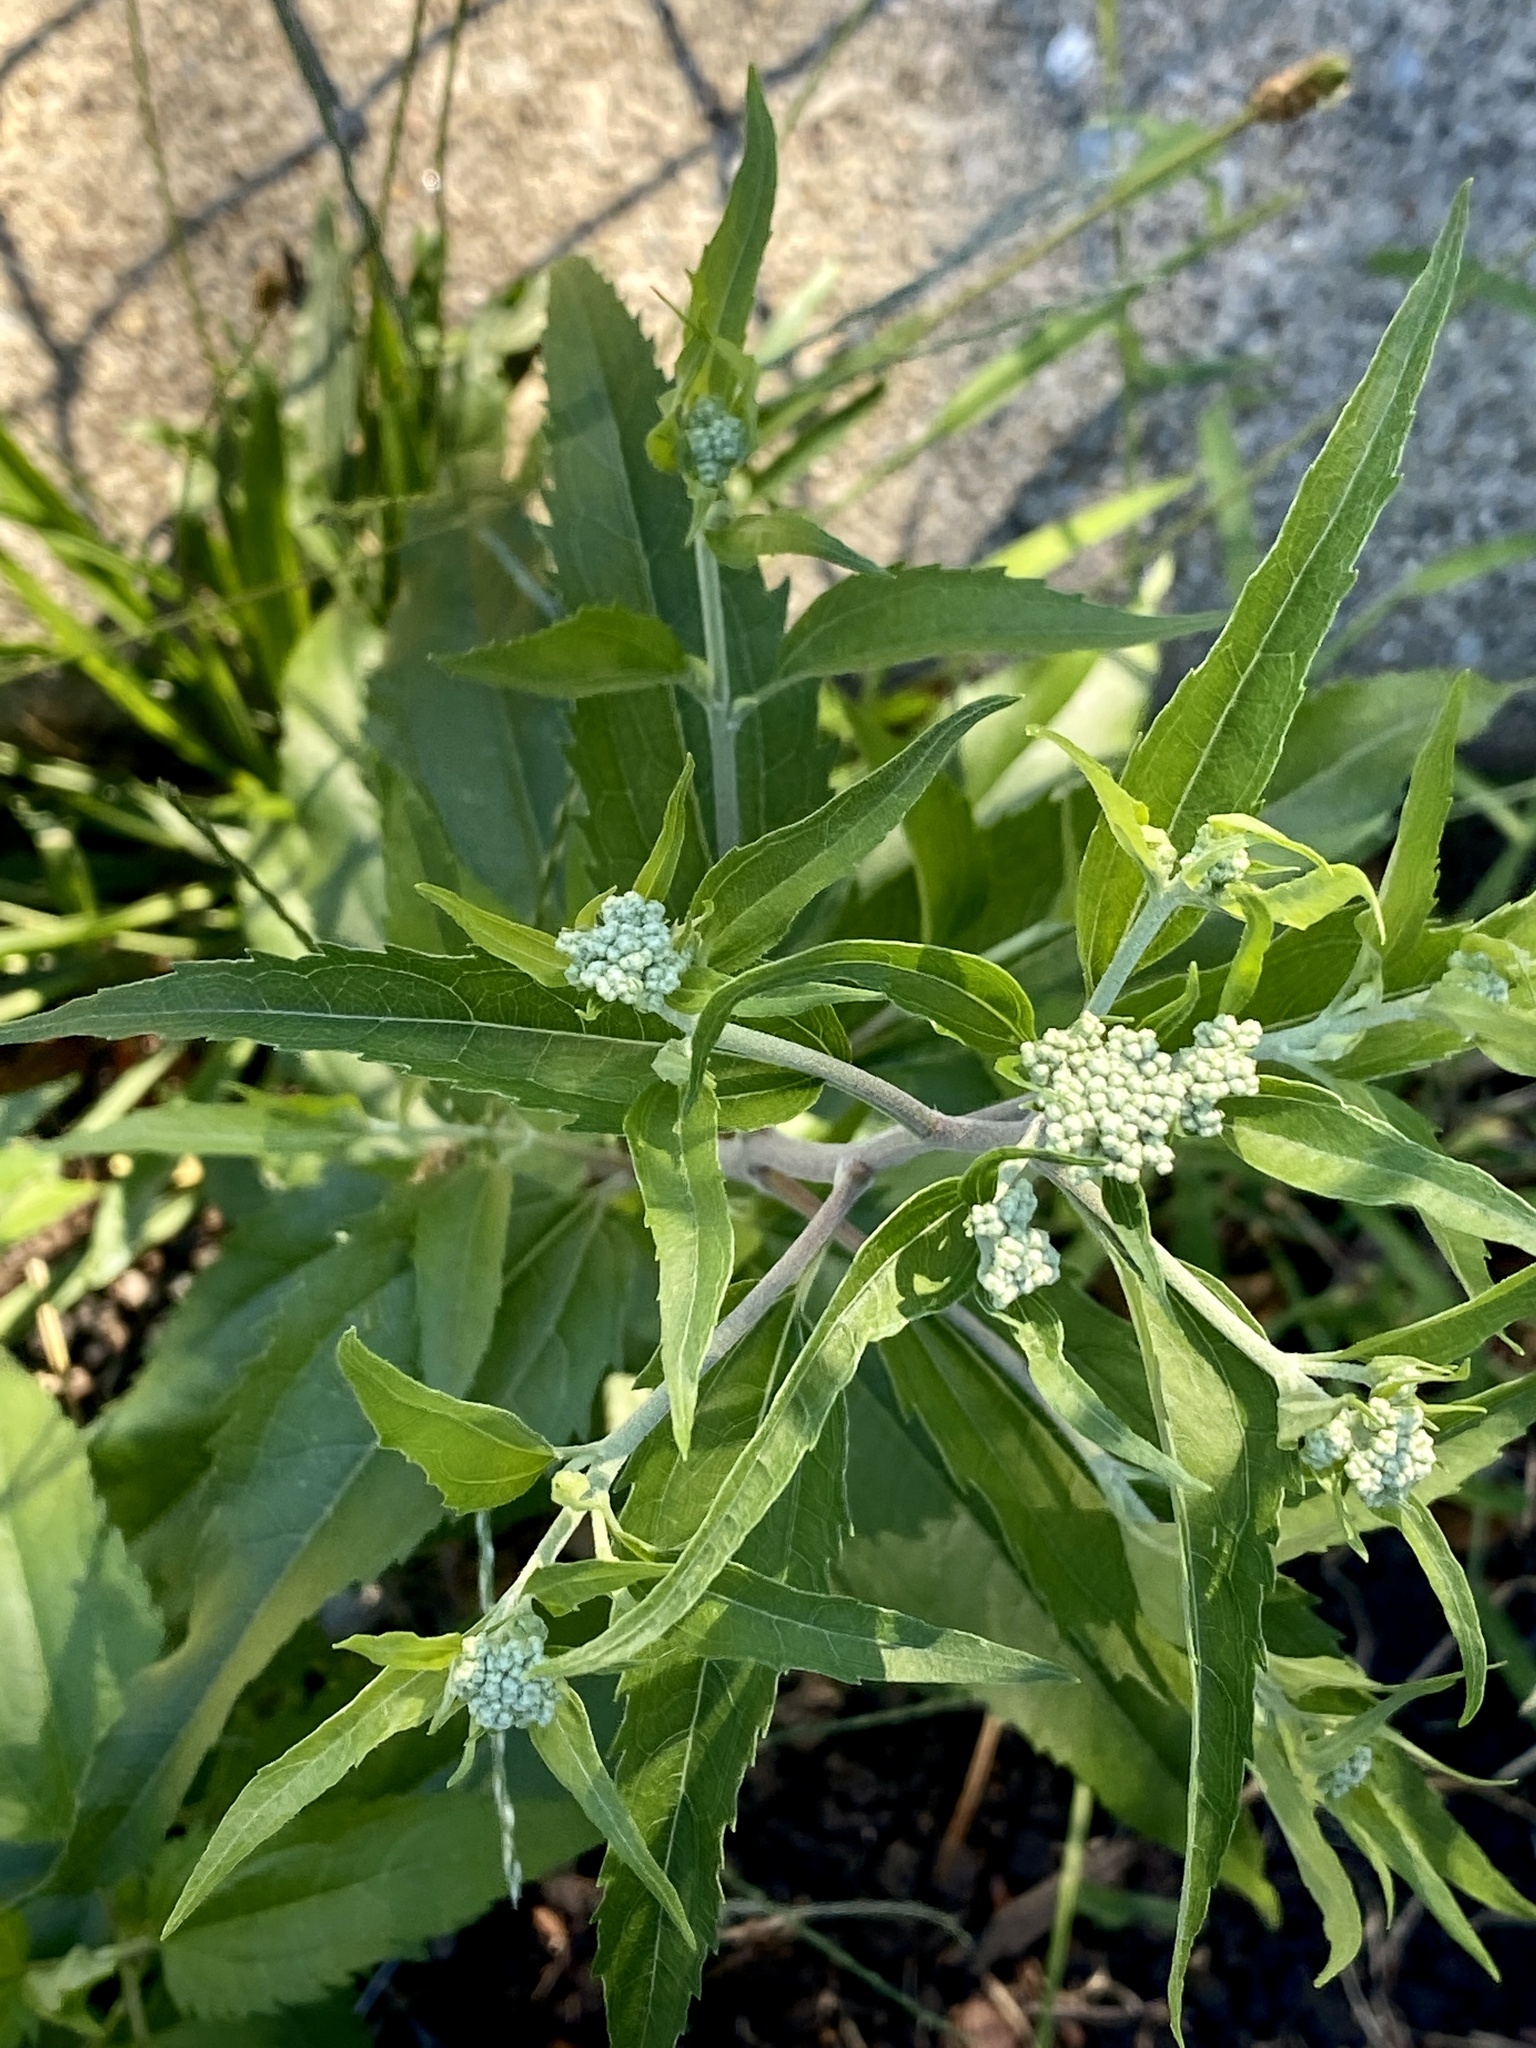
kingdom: Plantae
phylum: Tracheophyta
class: Magnoliopsida
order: Asterales
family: Asteraceae
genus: Eupatorium
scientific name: Eupatorium serotinum
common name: Late boneset
